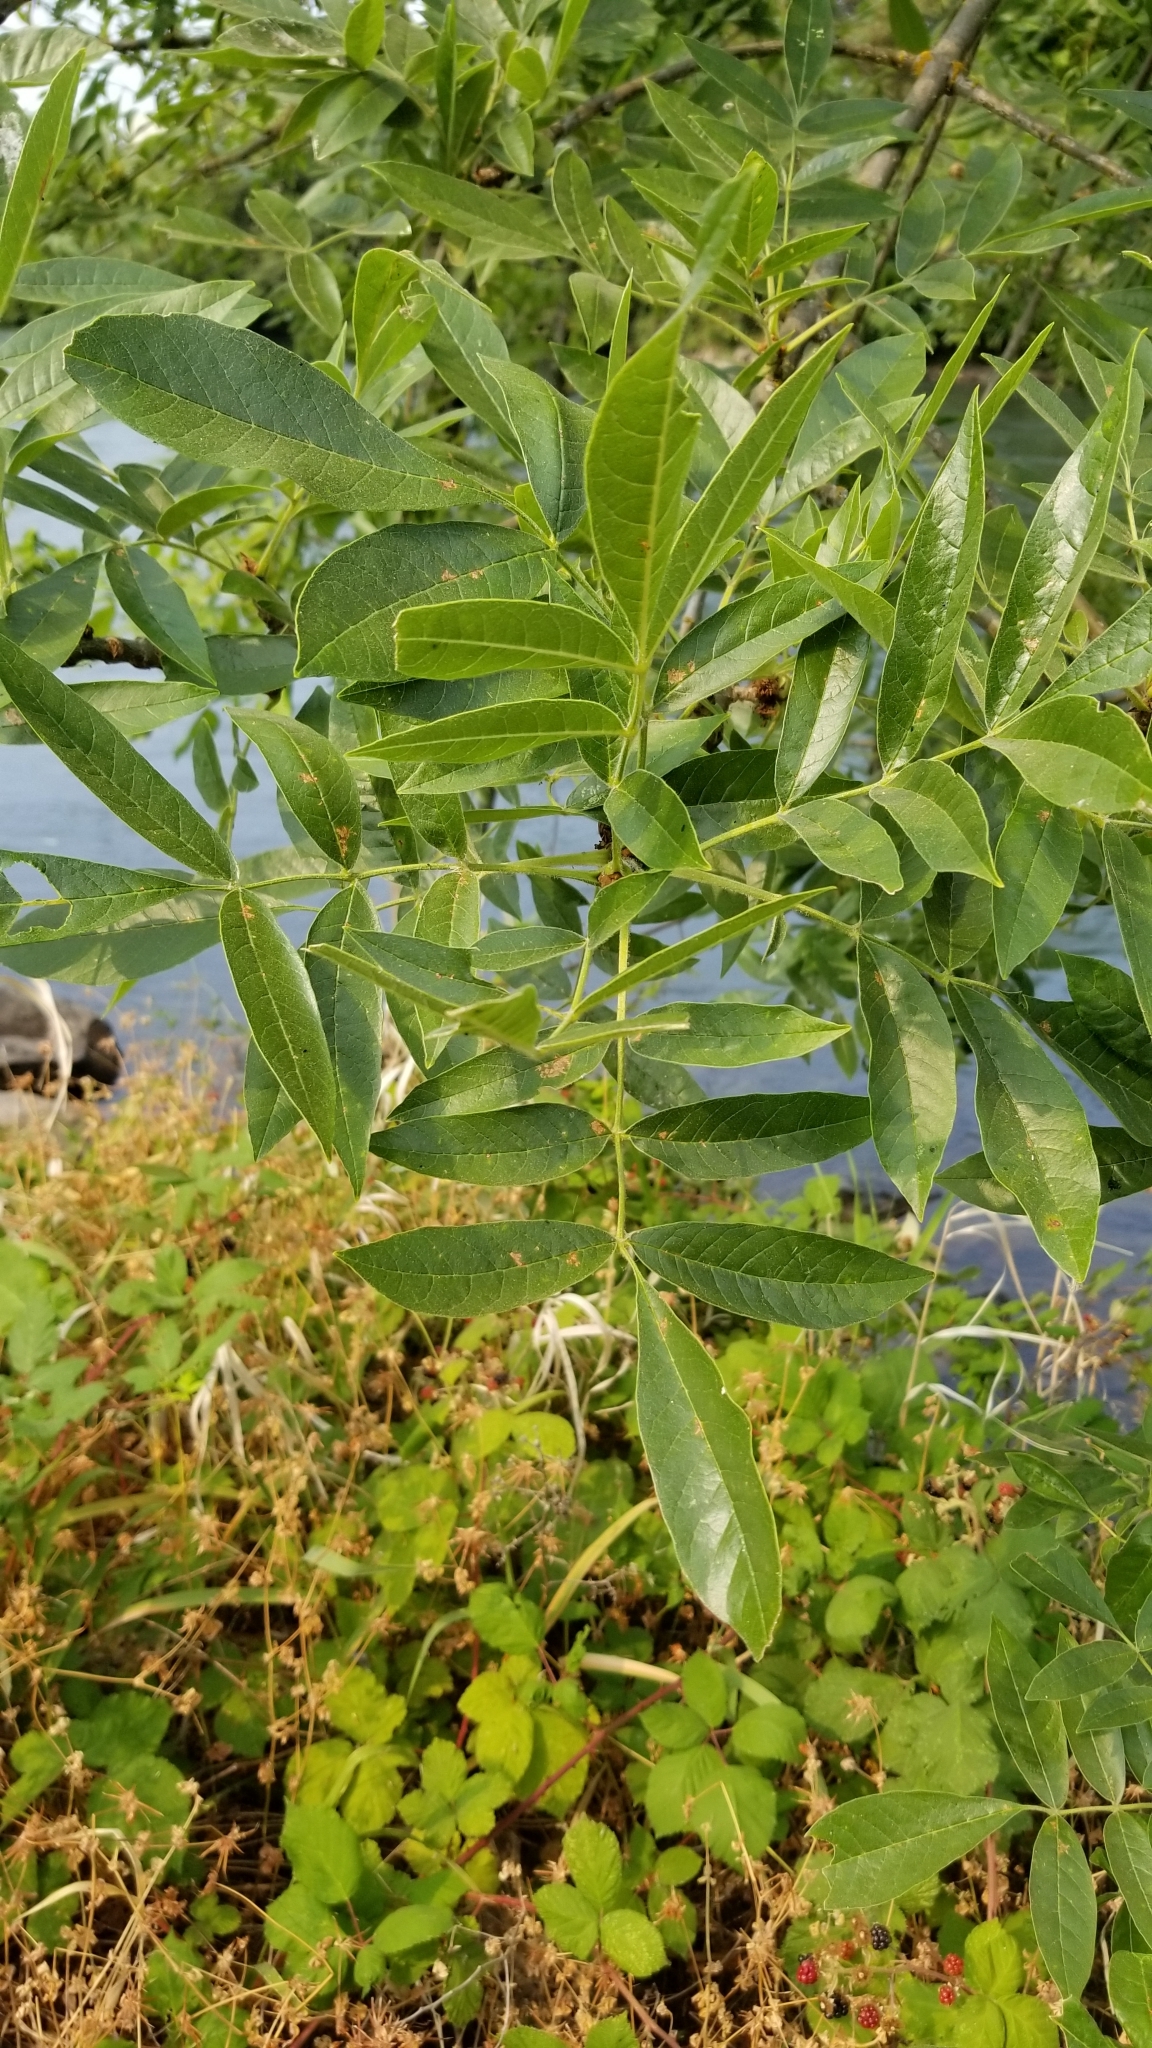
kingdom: Plantae
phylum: Tracheophyta
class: Magnoliopsida
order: Lamiales
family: Oleaceae
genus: Fraxinus
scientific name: Fraxinus latifolia
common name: Oregon ash
